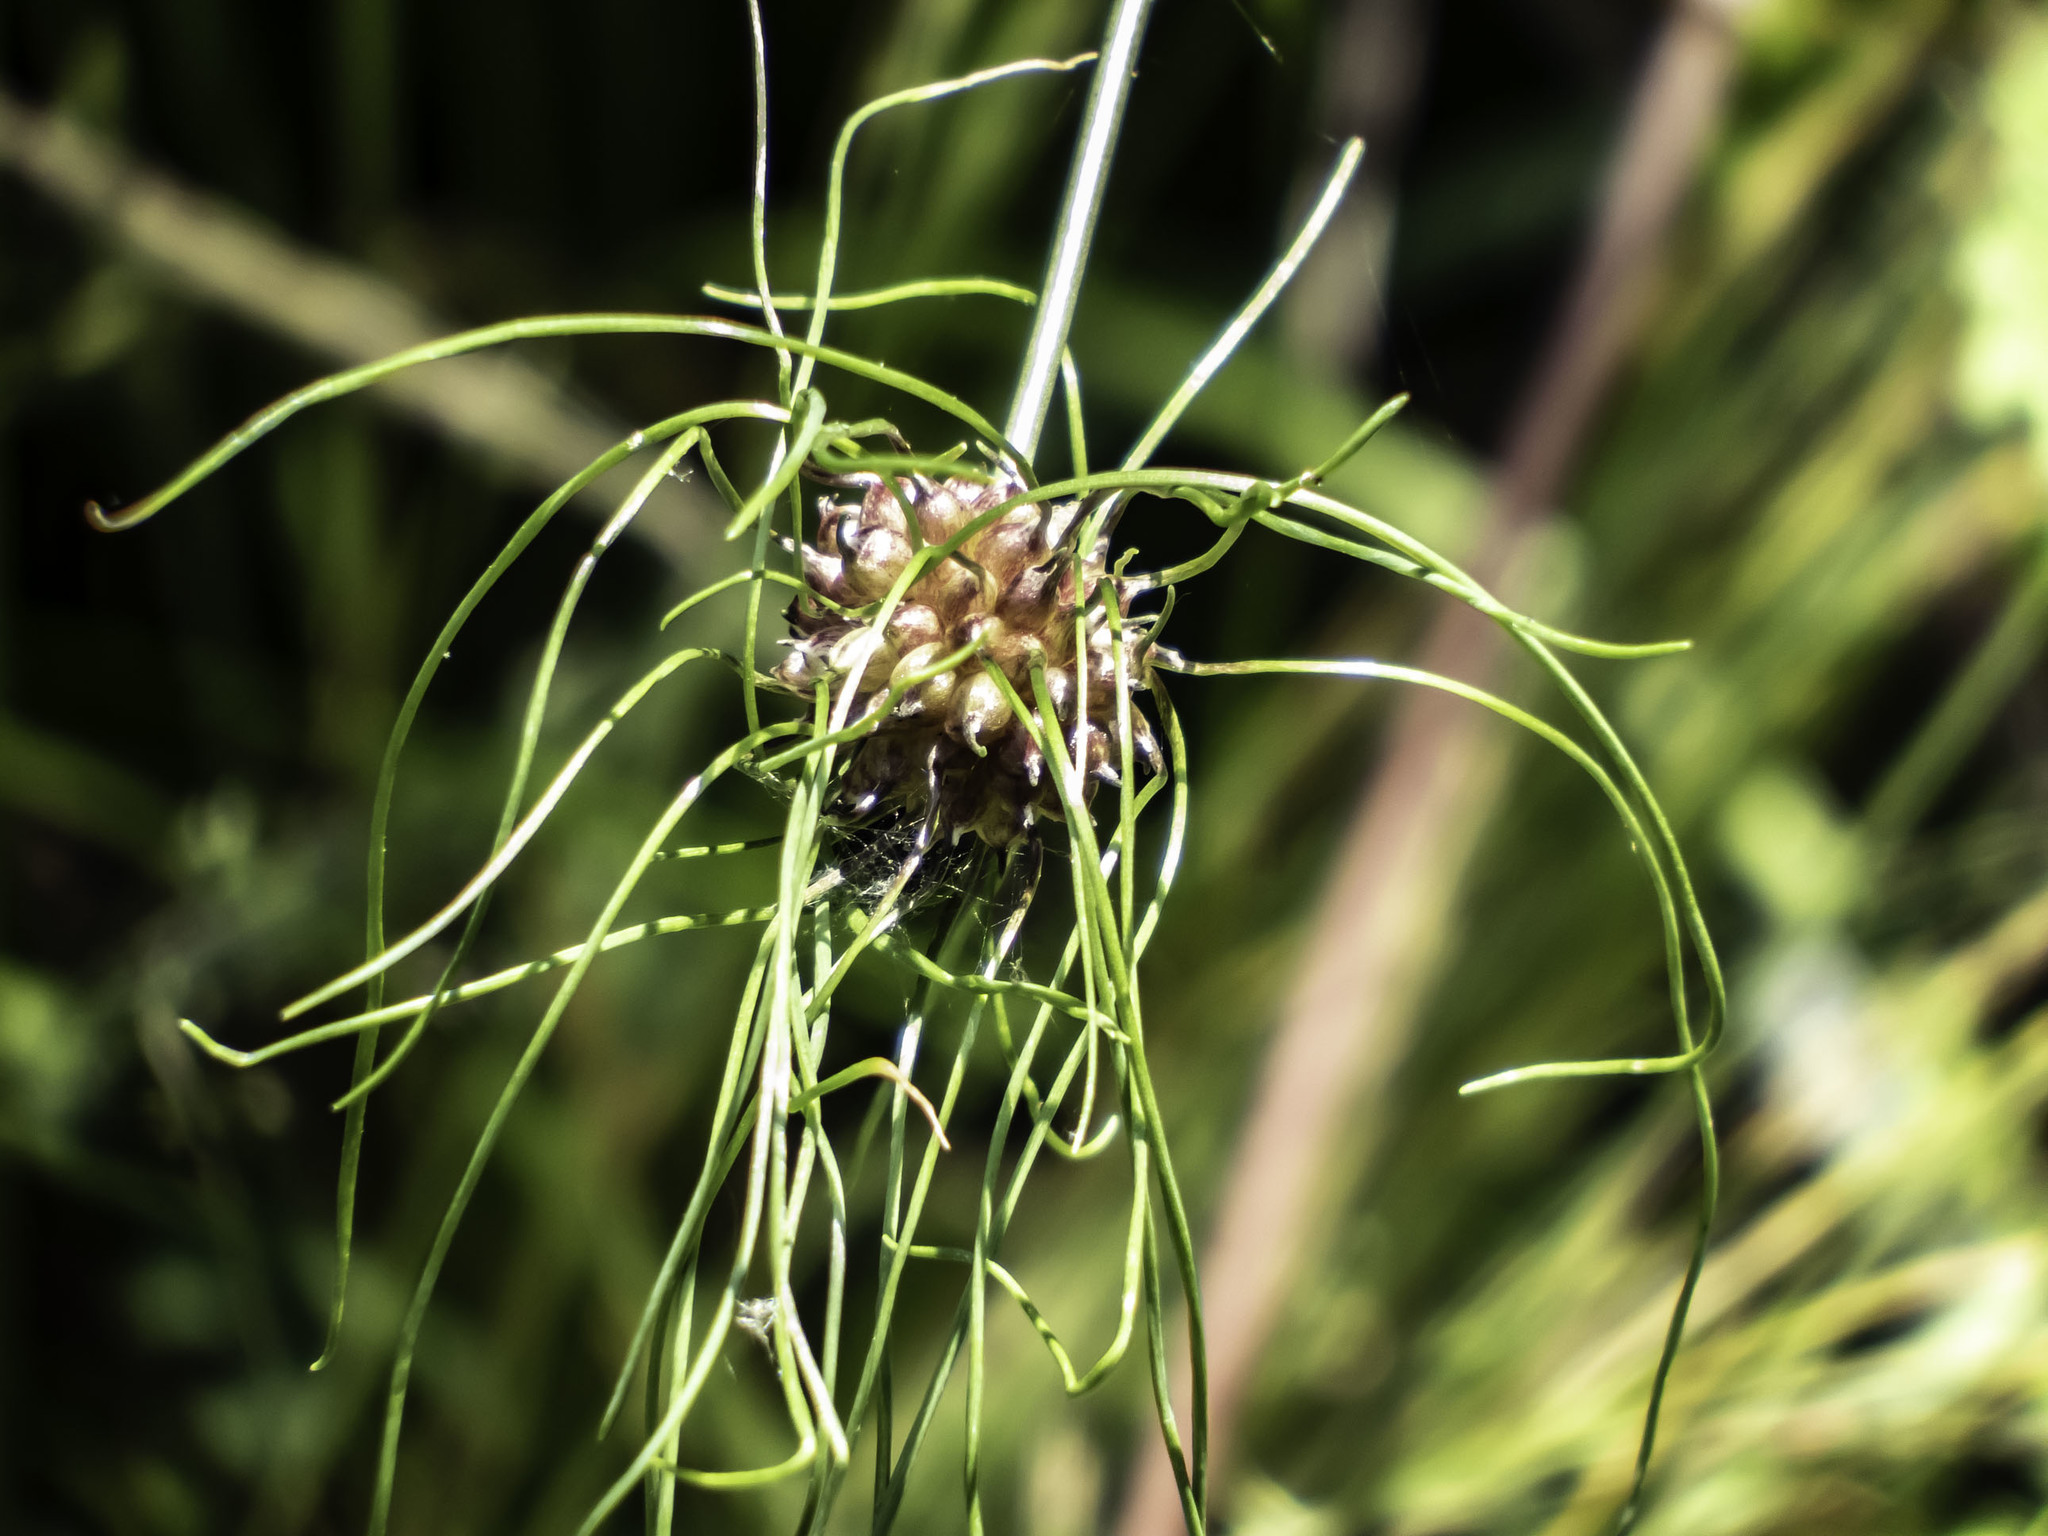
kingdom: Plantae
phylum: Tracheophyta
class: Liliopsida
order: Asparagales
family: Amaryllidaceae
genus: Allium
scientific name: Allium vineale
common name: Crow garlic
